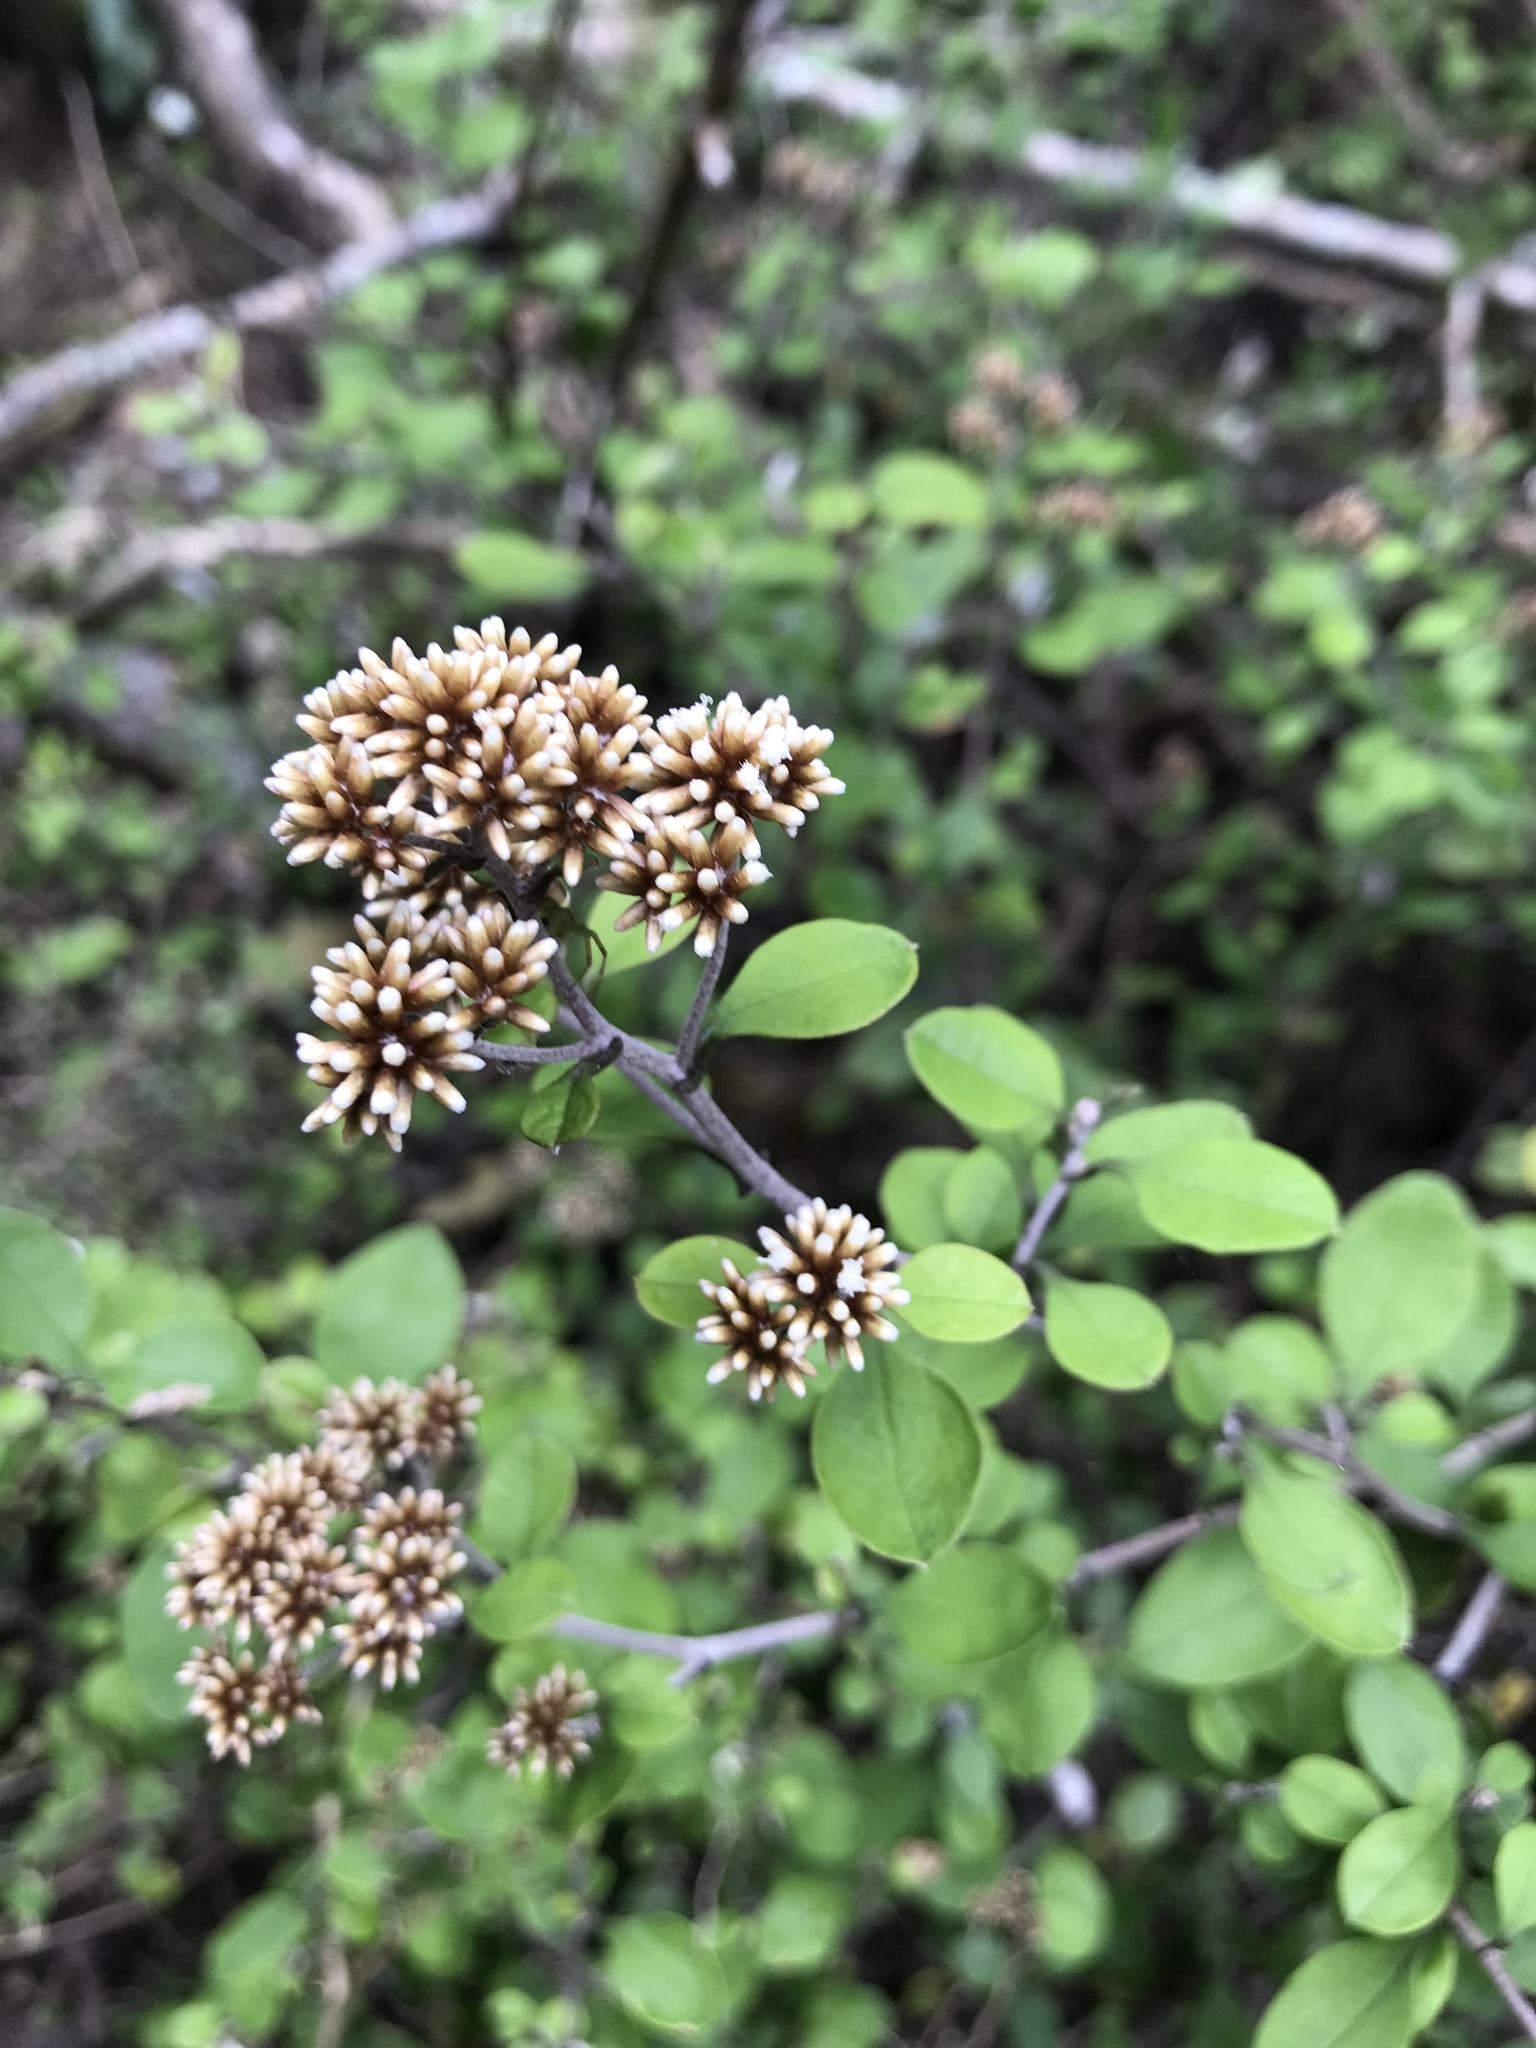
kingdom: Plantae
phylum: Tracheophyta
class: Magnoliopsida
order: Asterales
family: Asteraceae
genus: Ozothamnus
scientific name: Ozothamnus glomeratus
